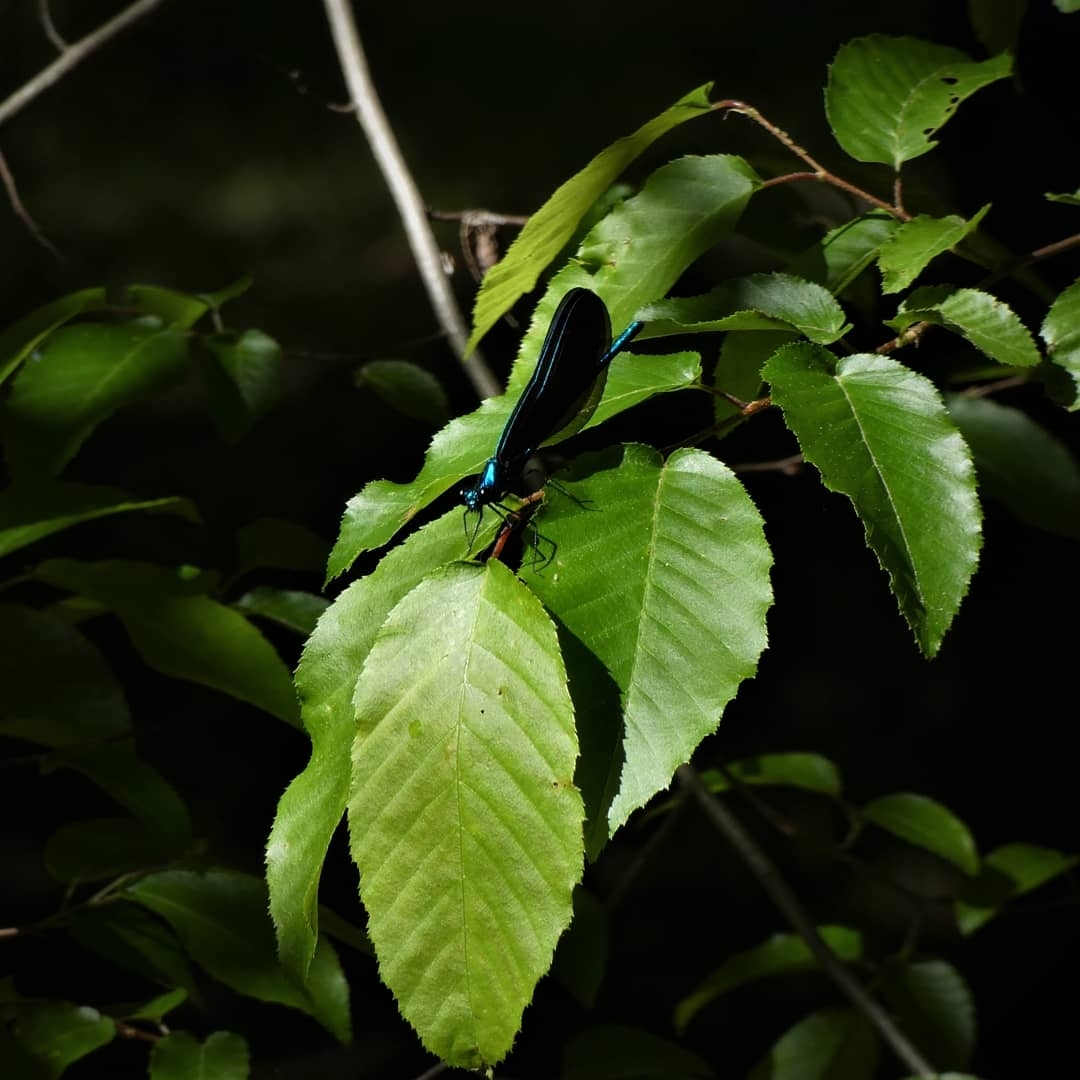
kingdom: Animalia
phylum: Arthropoda
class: Insecta
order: Odonata
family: Calopterygidae
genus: Calopteryx
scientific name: Calopteryx maculata
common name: Ebony jewelwing
